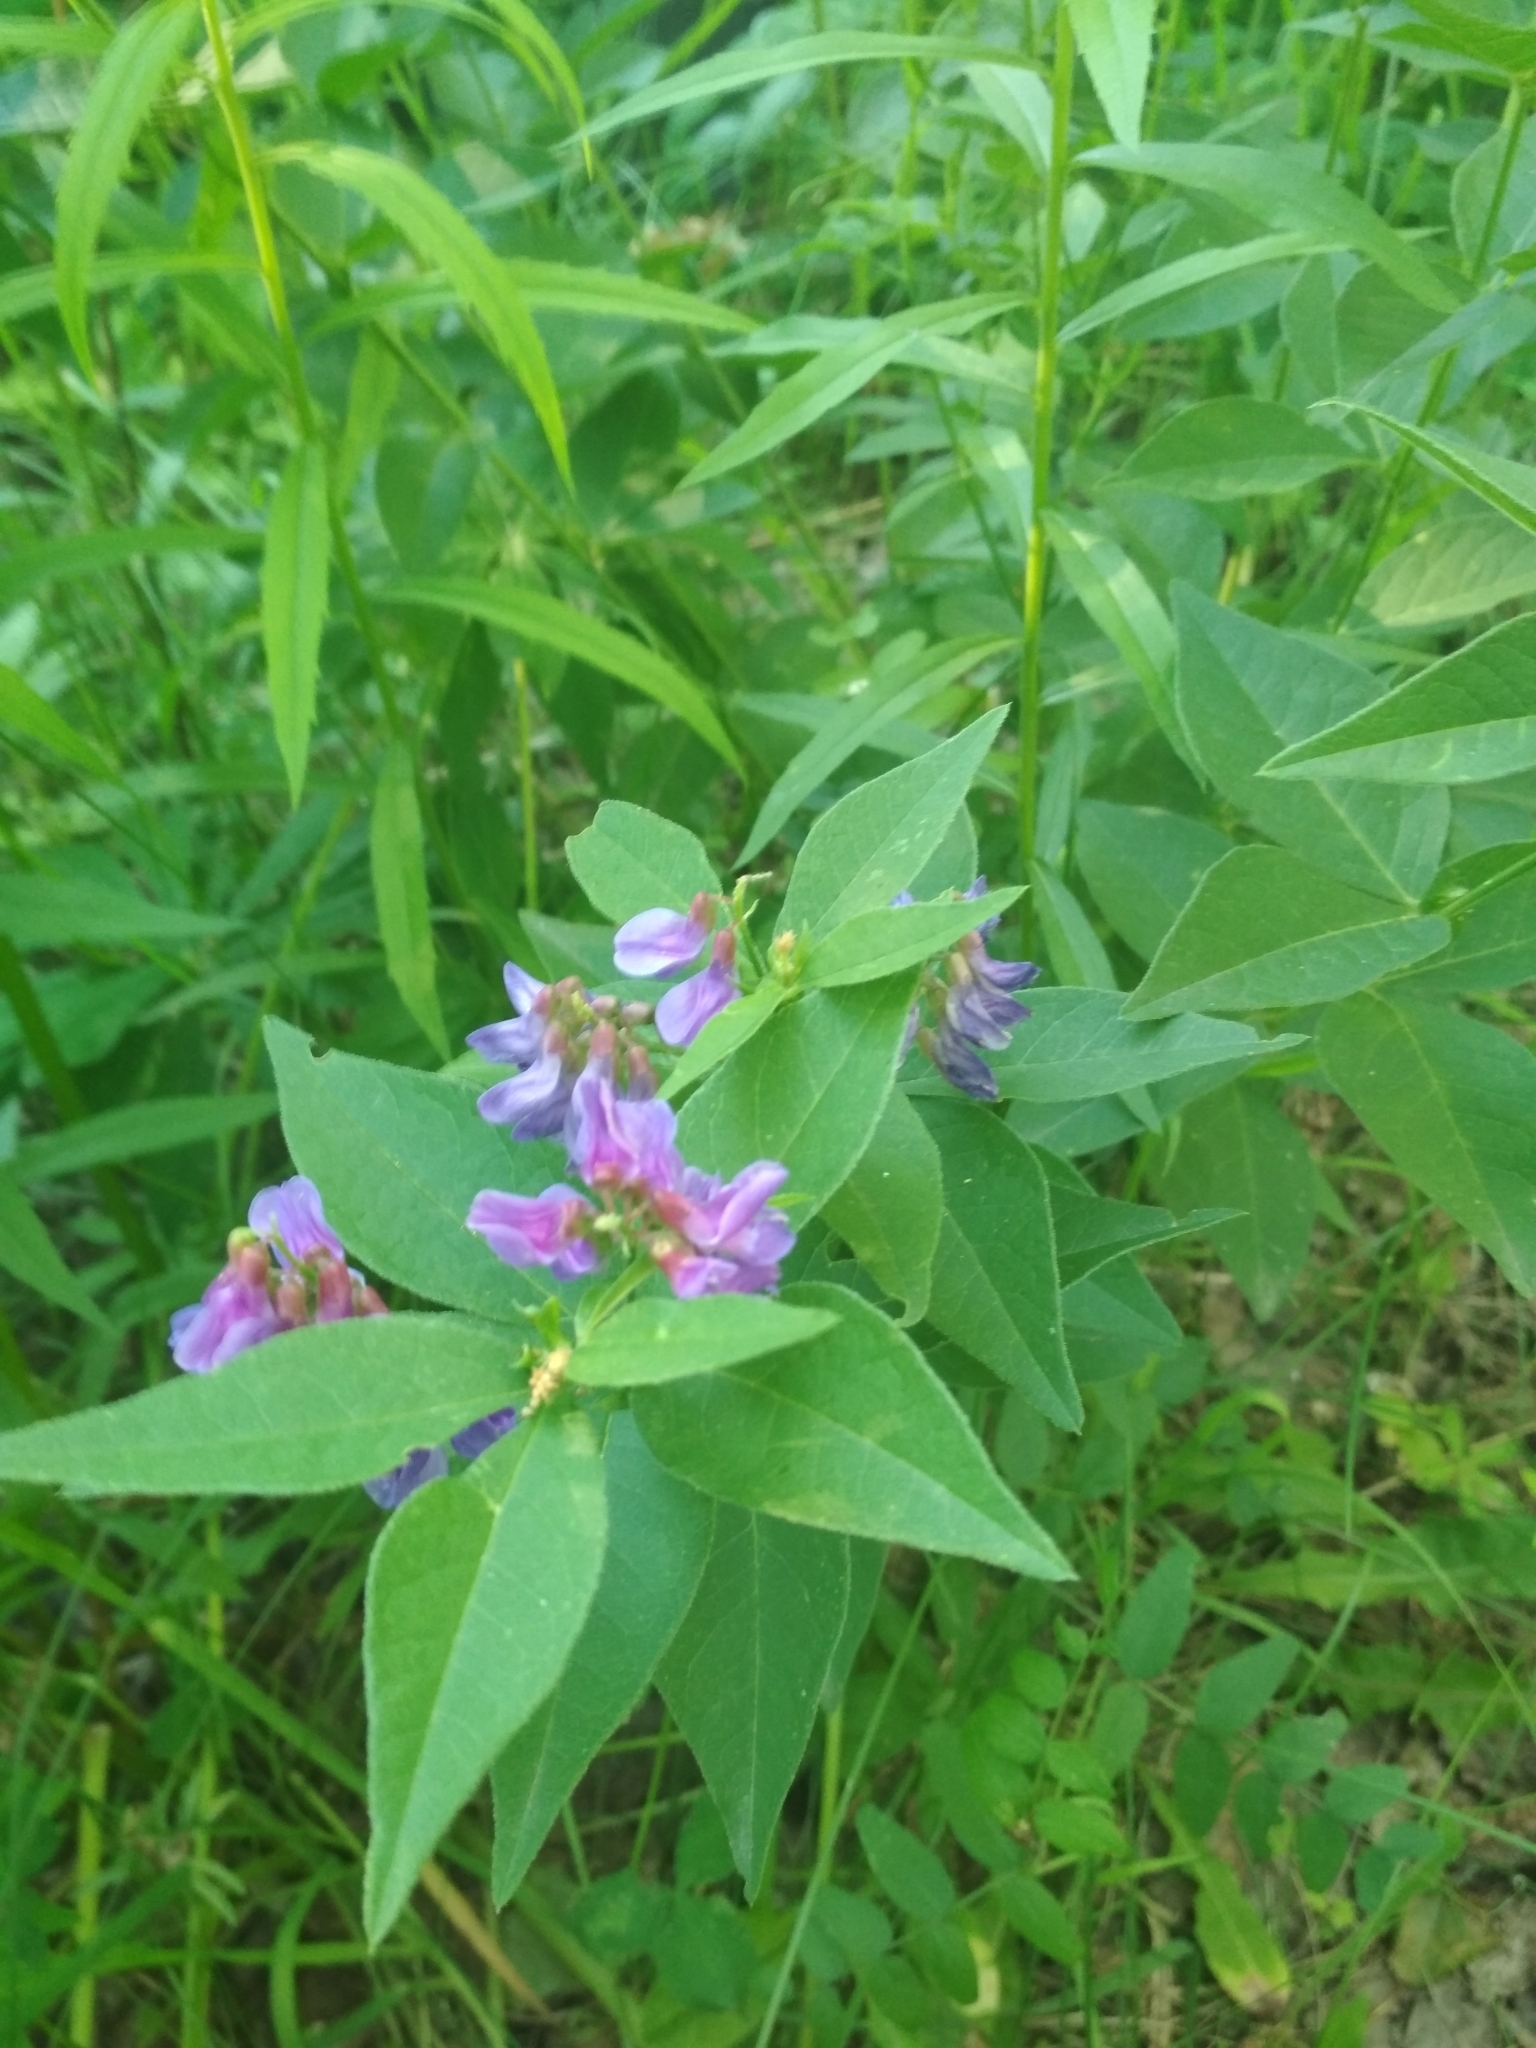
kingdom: Plantae
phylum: Tracheophyta
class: Magnoliopsida
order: Fabales
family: Fabaceae
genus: Vicia
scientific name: Vicia unijuga
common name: Two-leaf vetch
